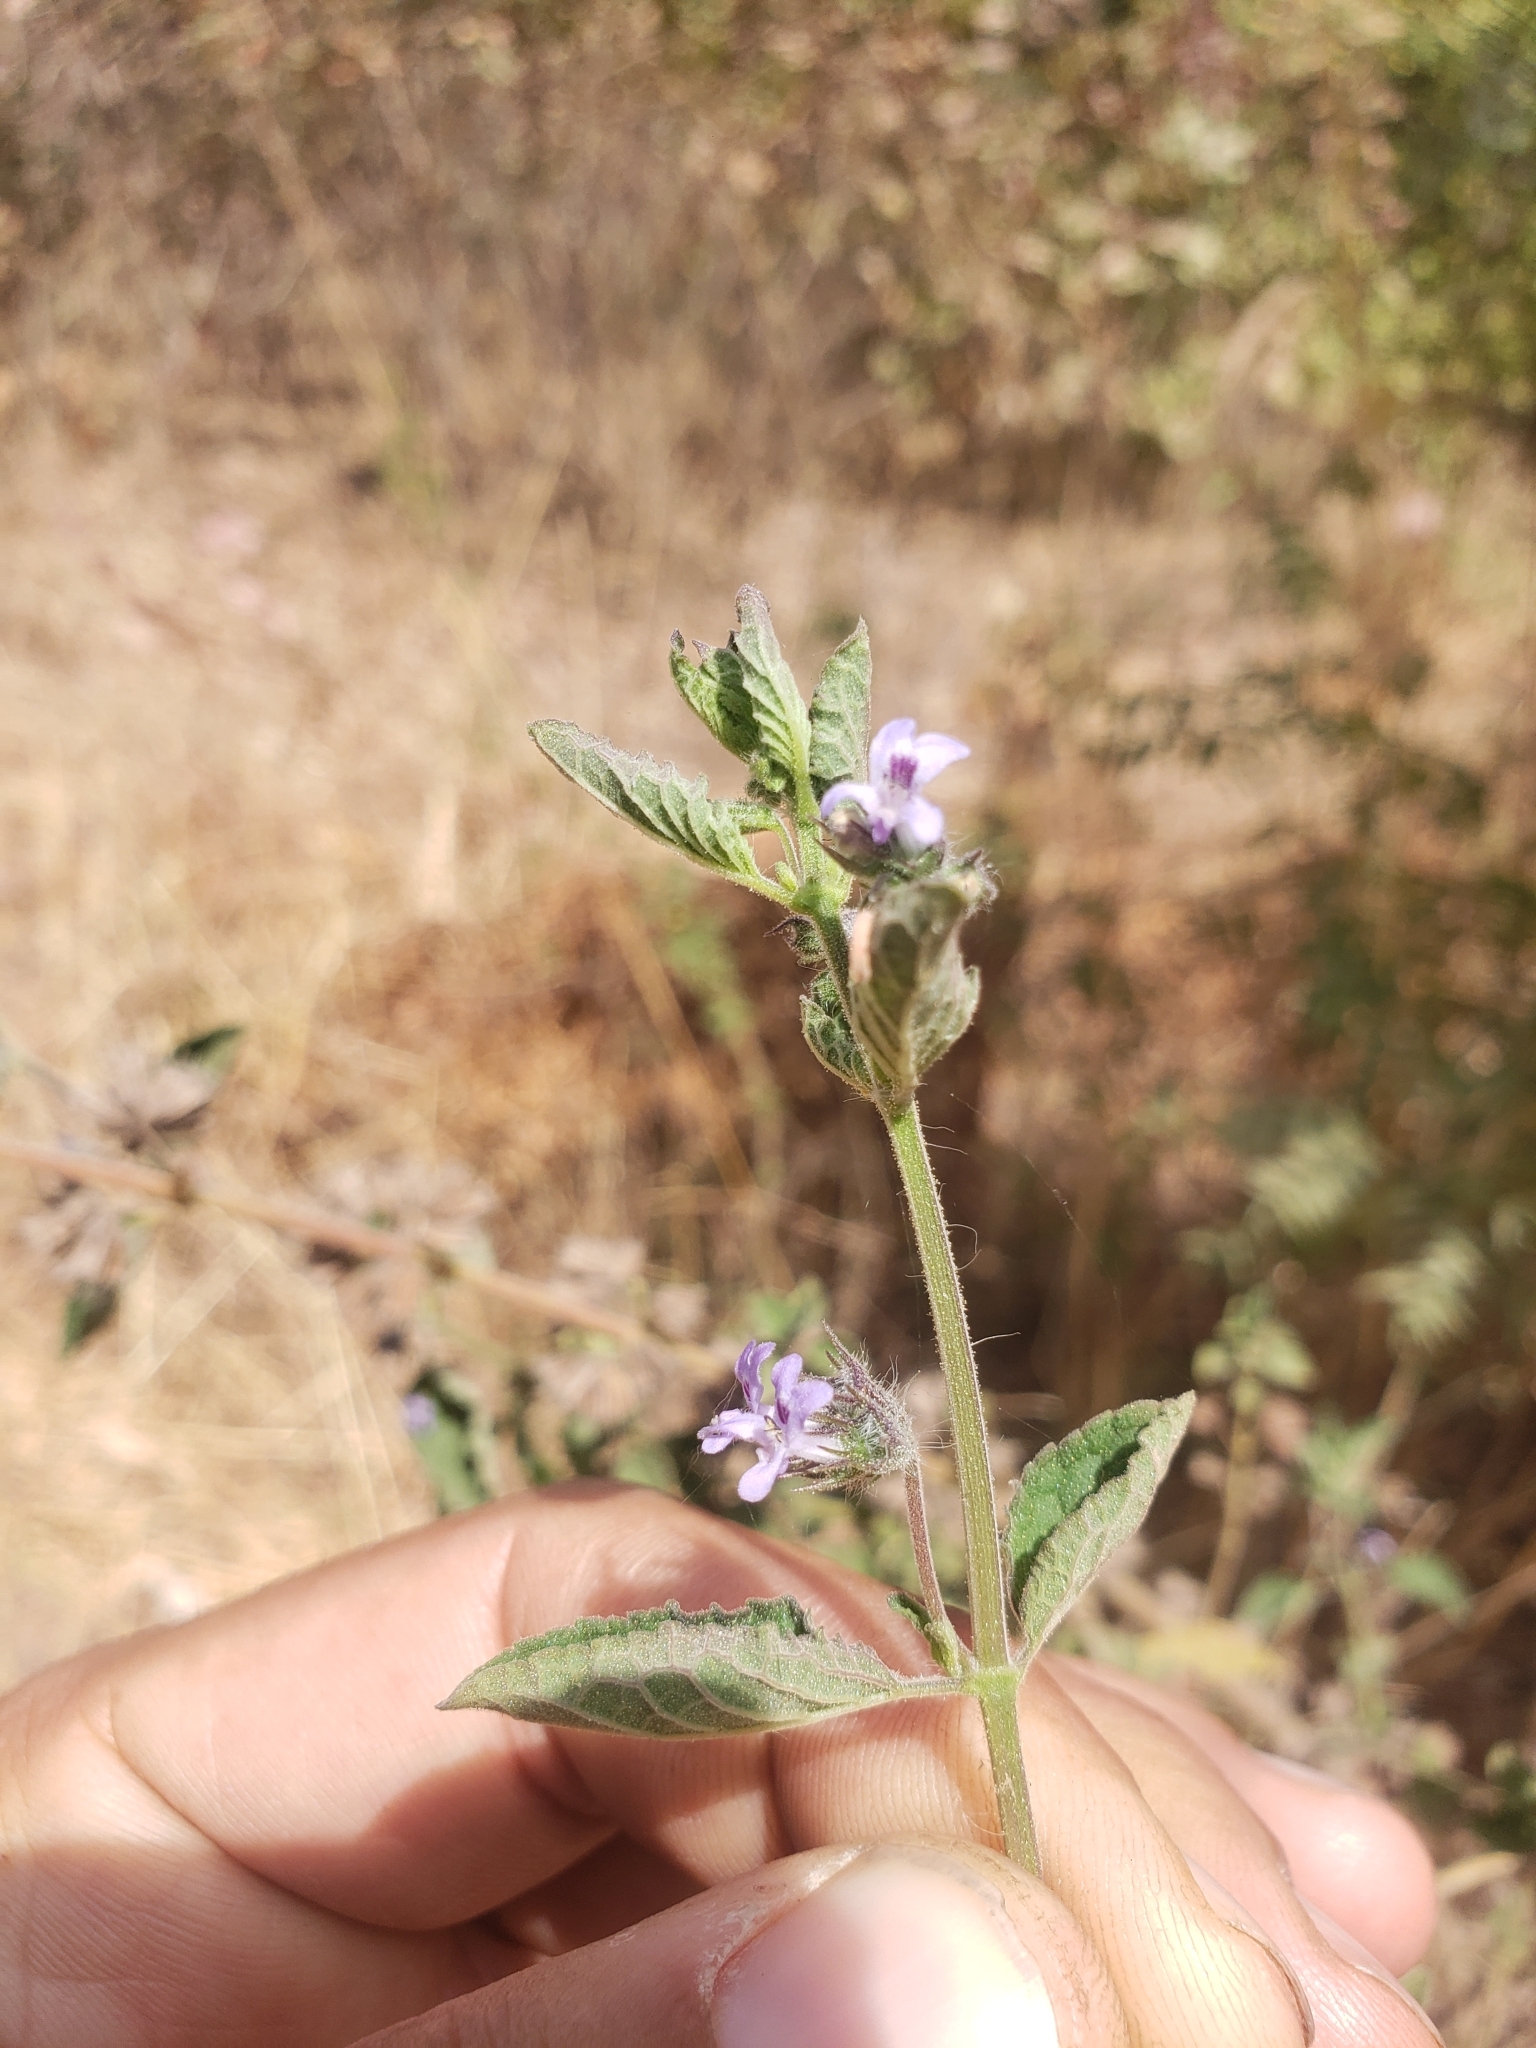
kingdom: Plantae
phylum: Tracheophyta
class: Magnoliopsida
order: Lamiales
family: Lamiaceae
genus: Mesosphaerum
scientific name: Mesosphaerum suaveolens
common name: Pignut
